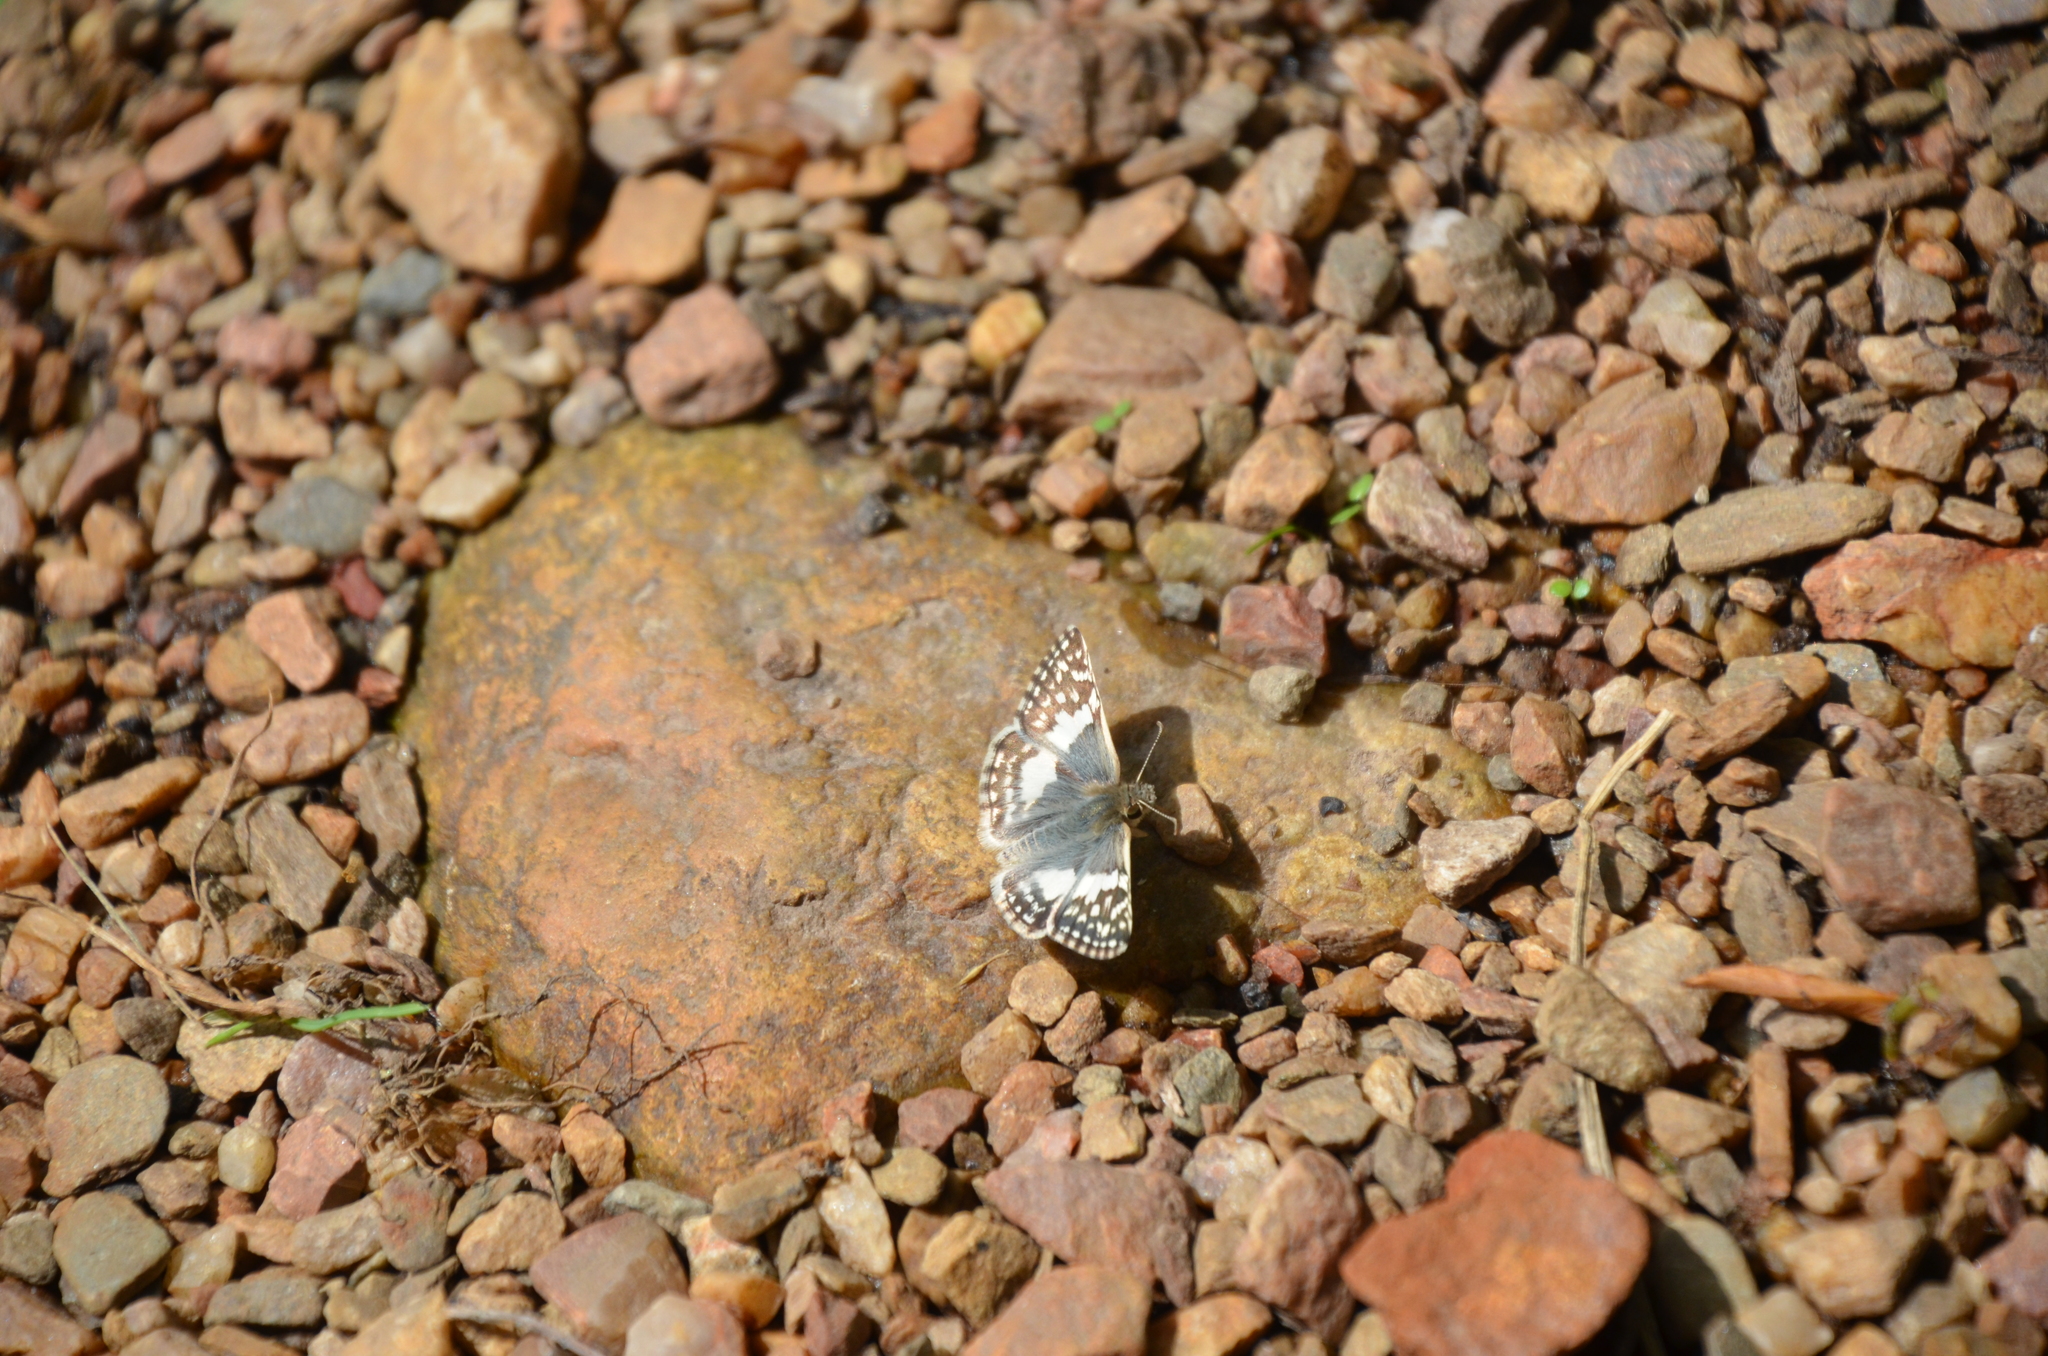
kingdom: Animalia
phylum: Arthropoda
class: Insecta
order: Lepidoptera
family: Hesperiidae
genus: Heliopyrgus
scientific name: Heliopyrgus domicella
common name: Erichson's white skipper
